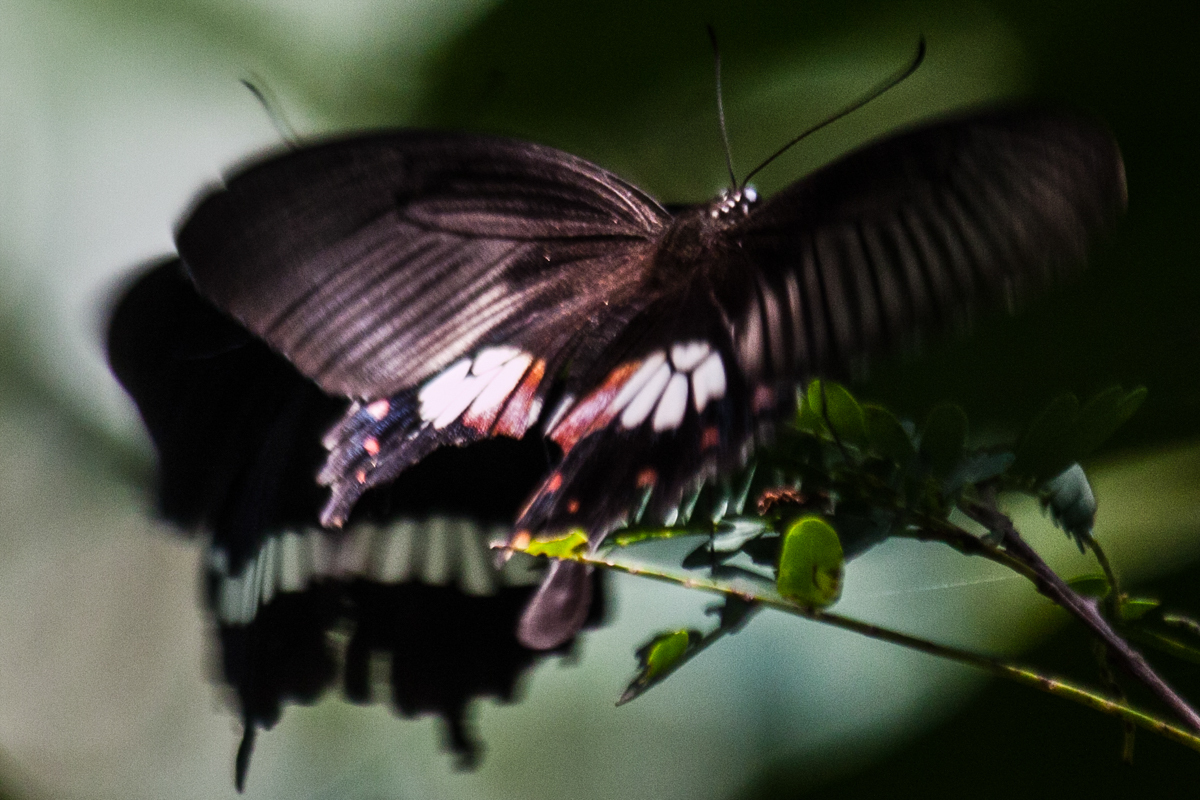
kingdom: Animalia
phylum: Arthropoda
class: Insecta
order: Lepidoptera
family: Papilionidae
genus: Papilio
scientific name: Papilio polytes
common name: Common mormon
